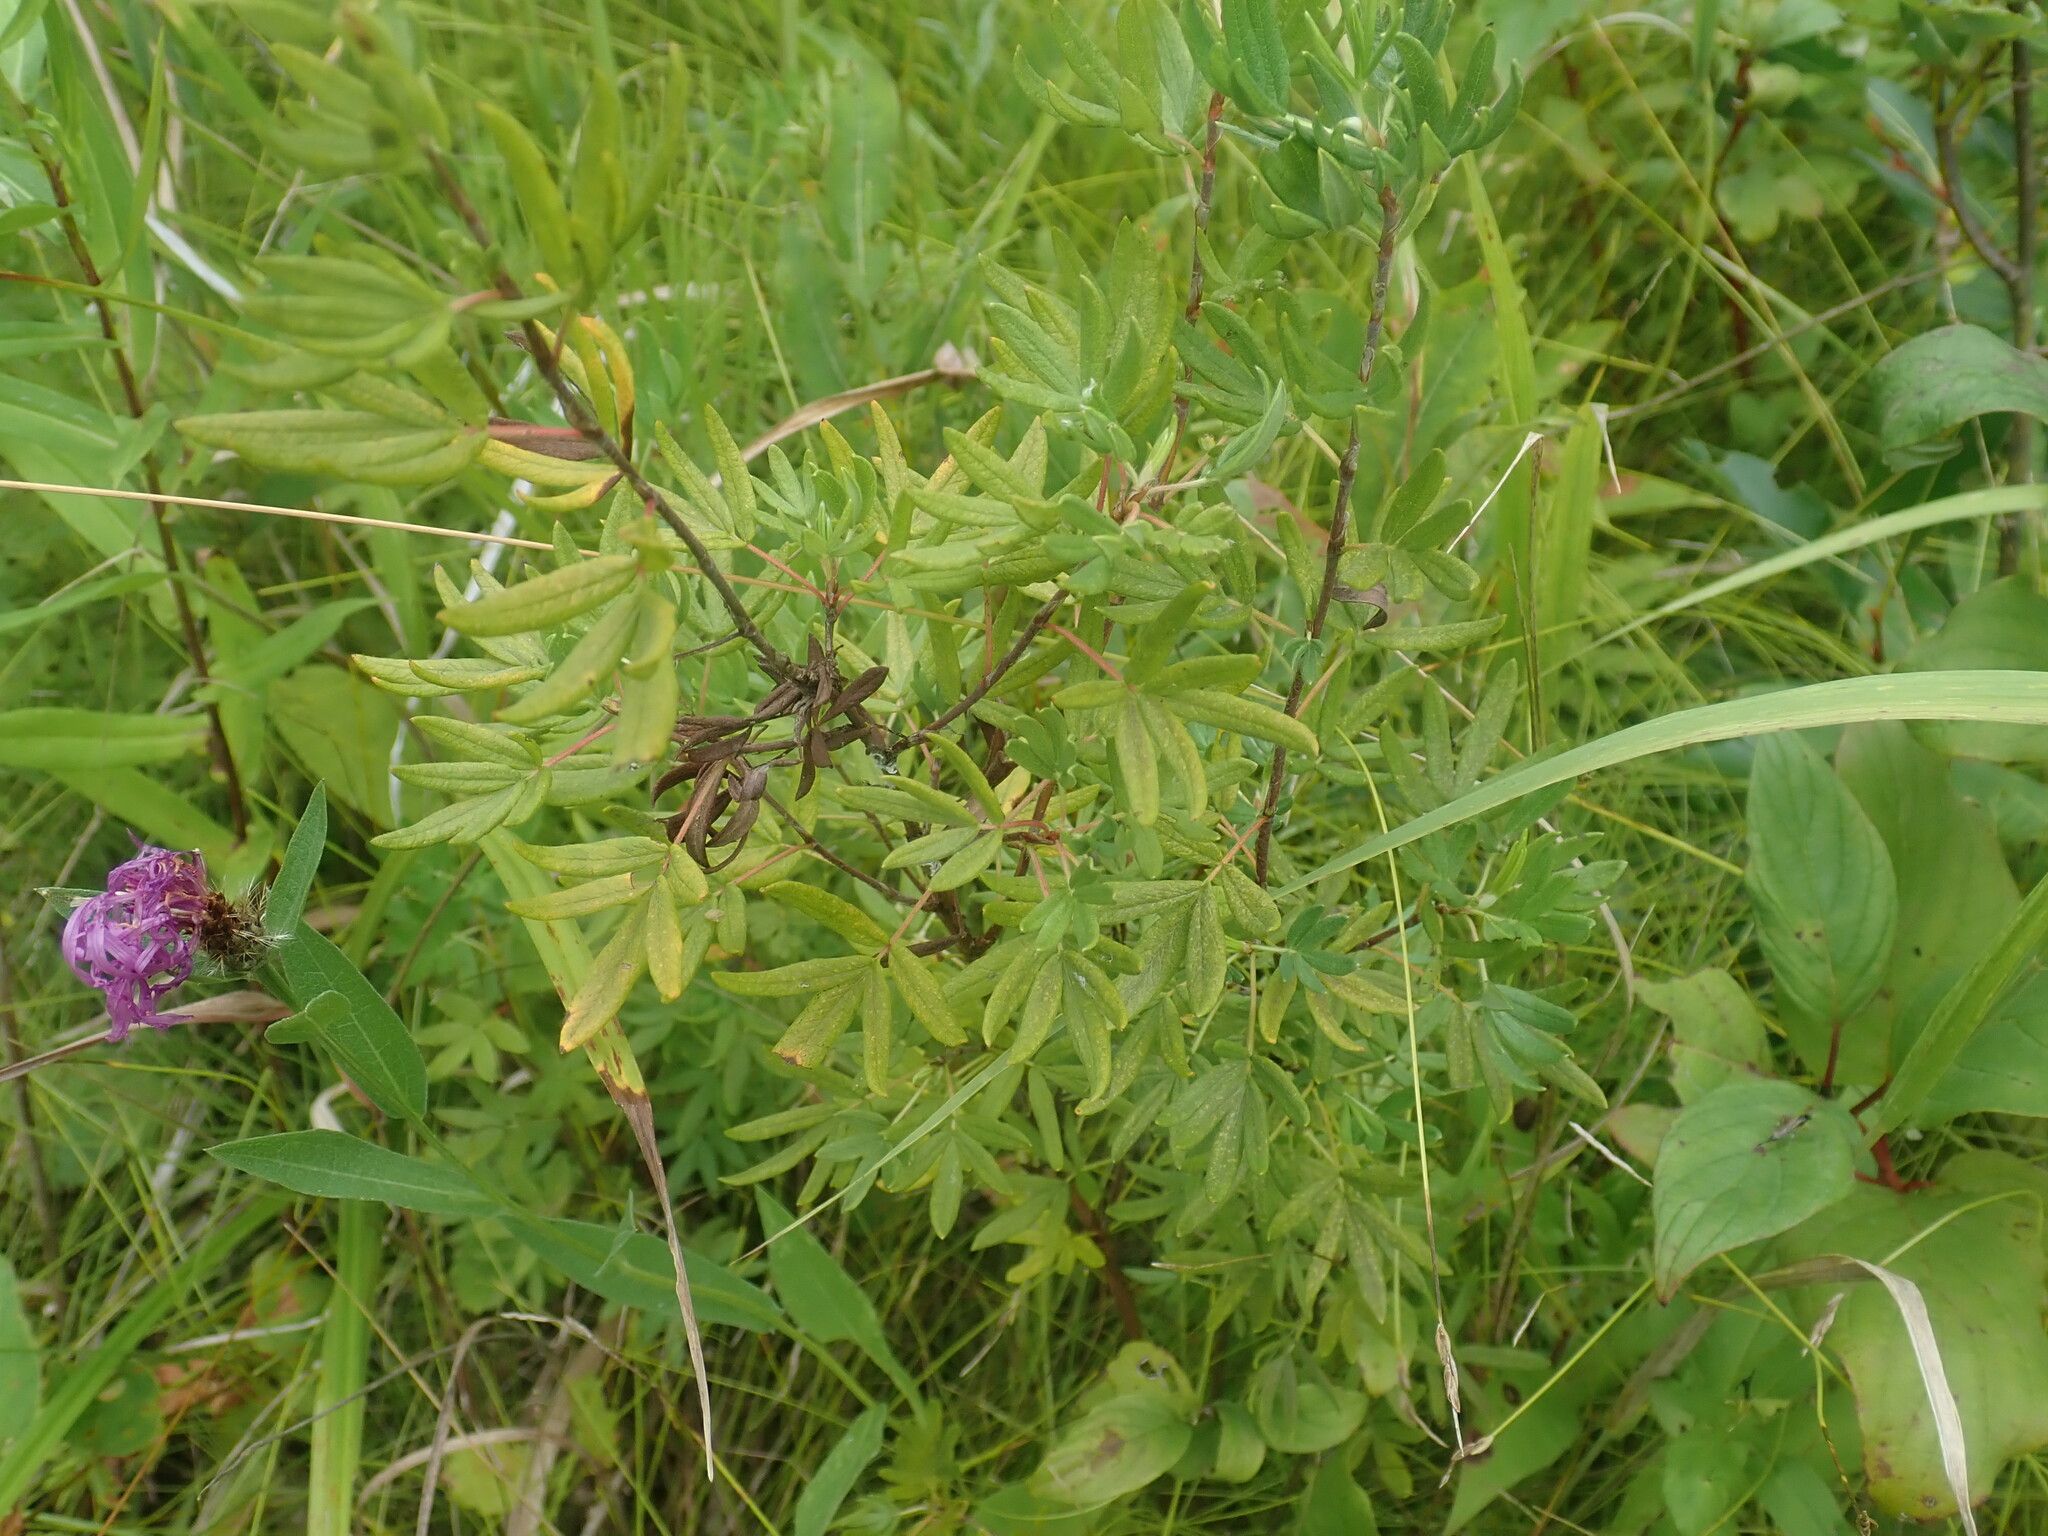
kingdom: Plantae
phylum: Tracheophyta
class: Magnoliopsida
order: Rosales
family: Rosaceae
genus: Dasiphora
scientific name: Dasiphora fruticosa
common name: Shrubby cinquefoil
